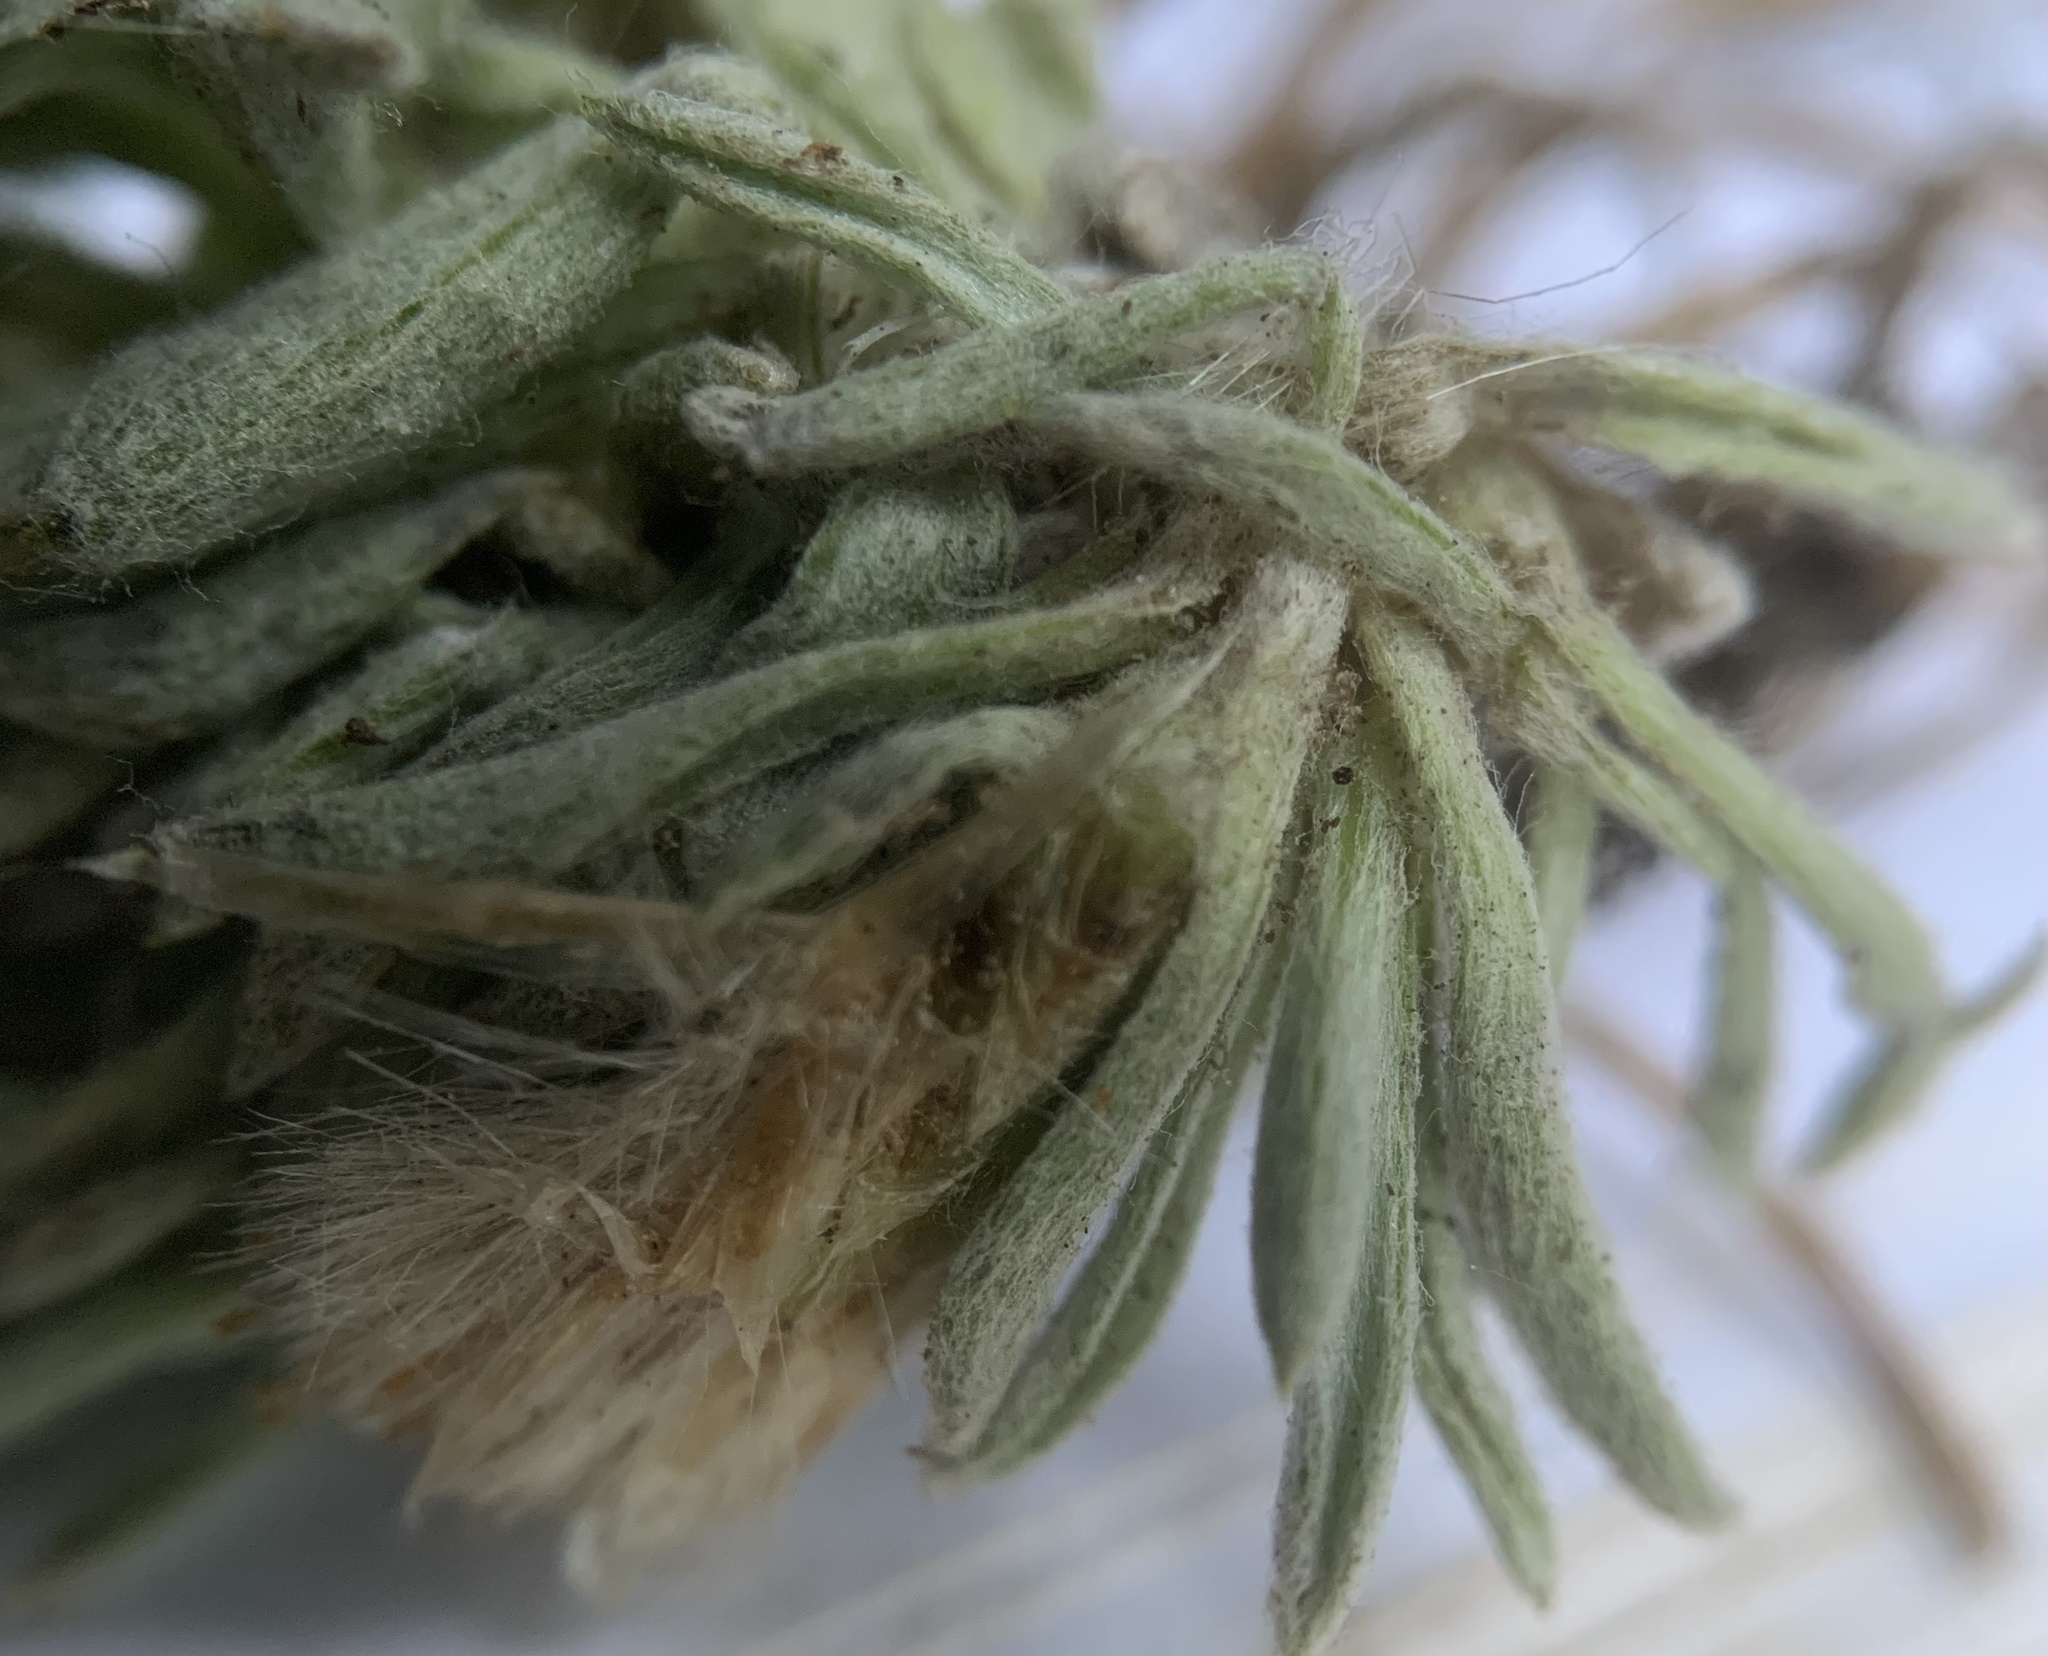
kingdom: Plantae
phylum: Tracheophyta
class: Magnoliopsida
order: Asterales
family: Asteraceae
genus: Antennaria
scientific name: Antennaria dimorpha
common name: Cushion pussytoes
